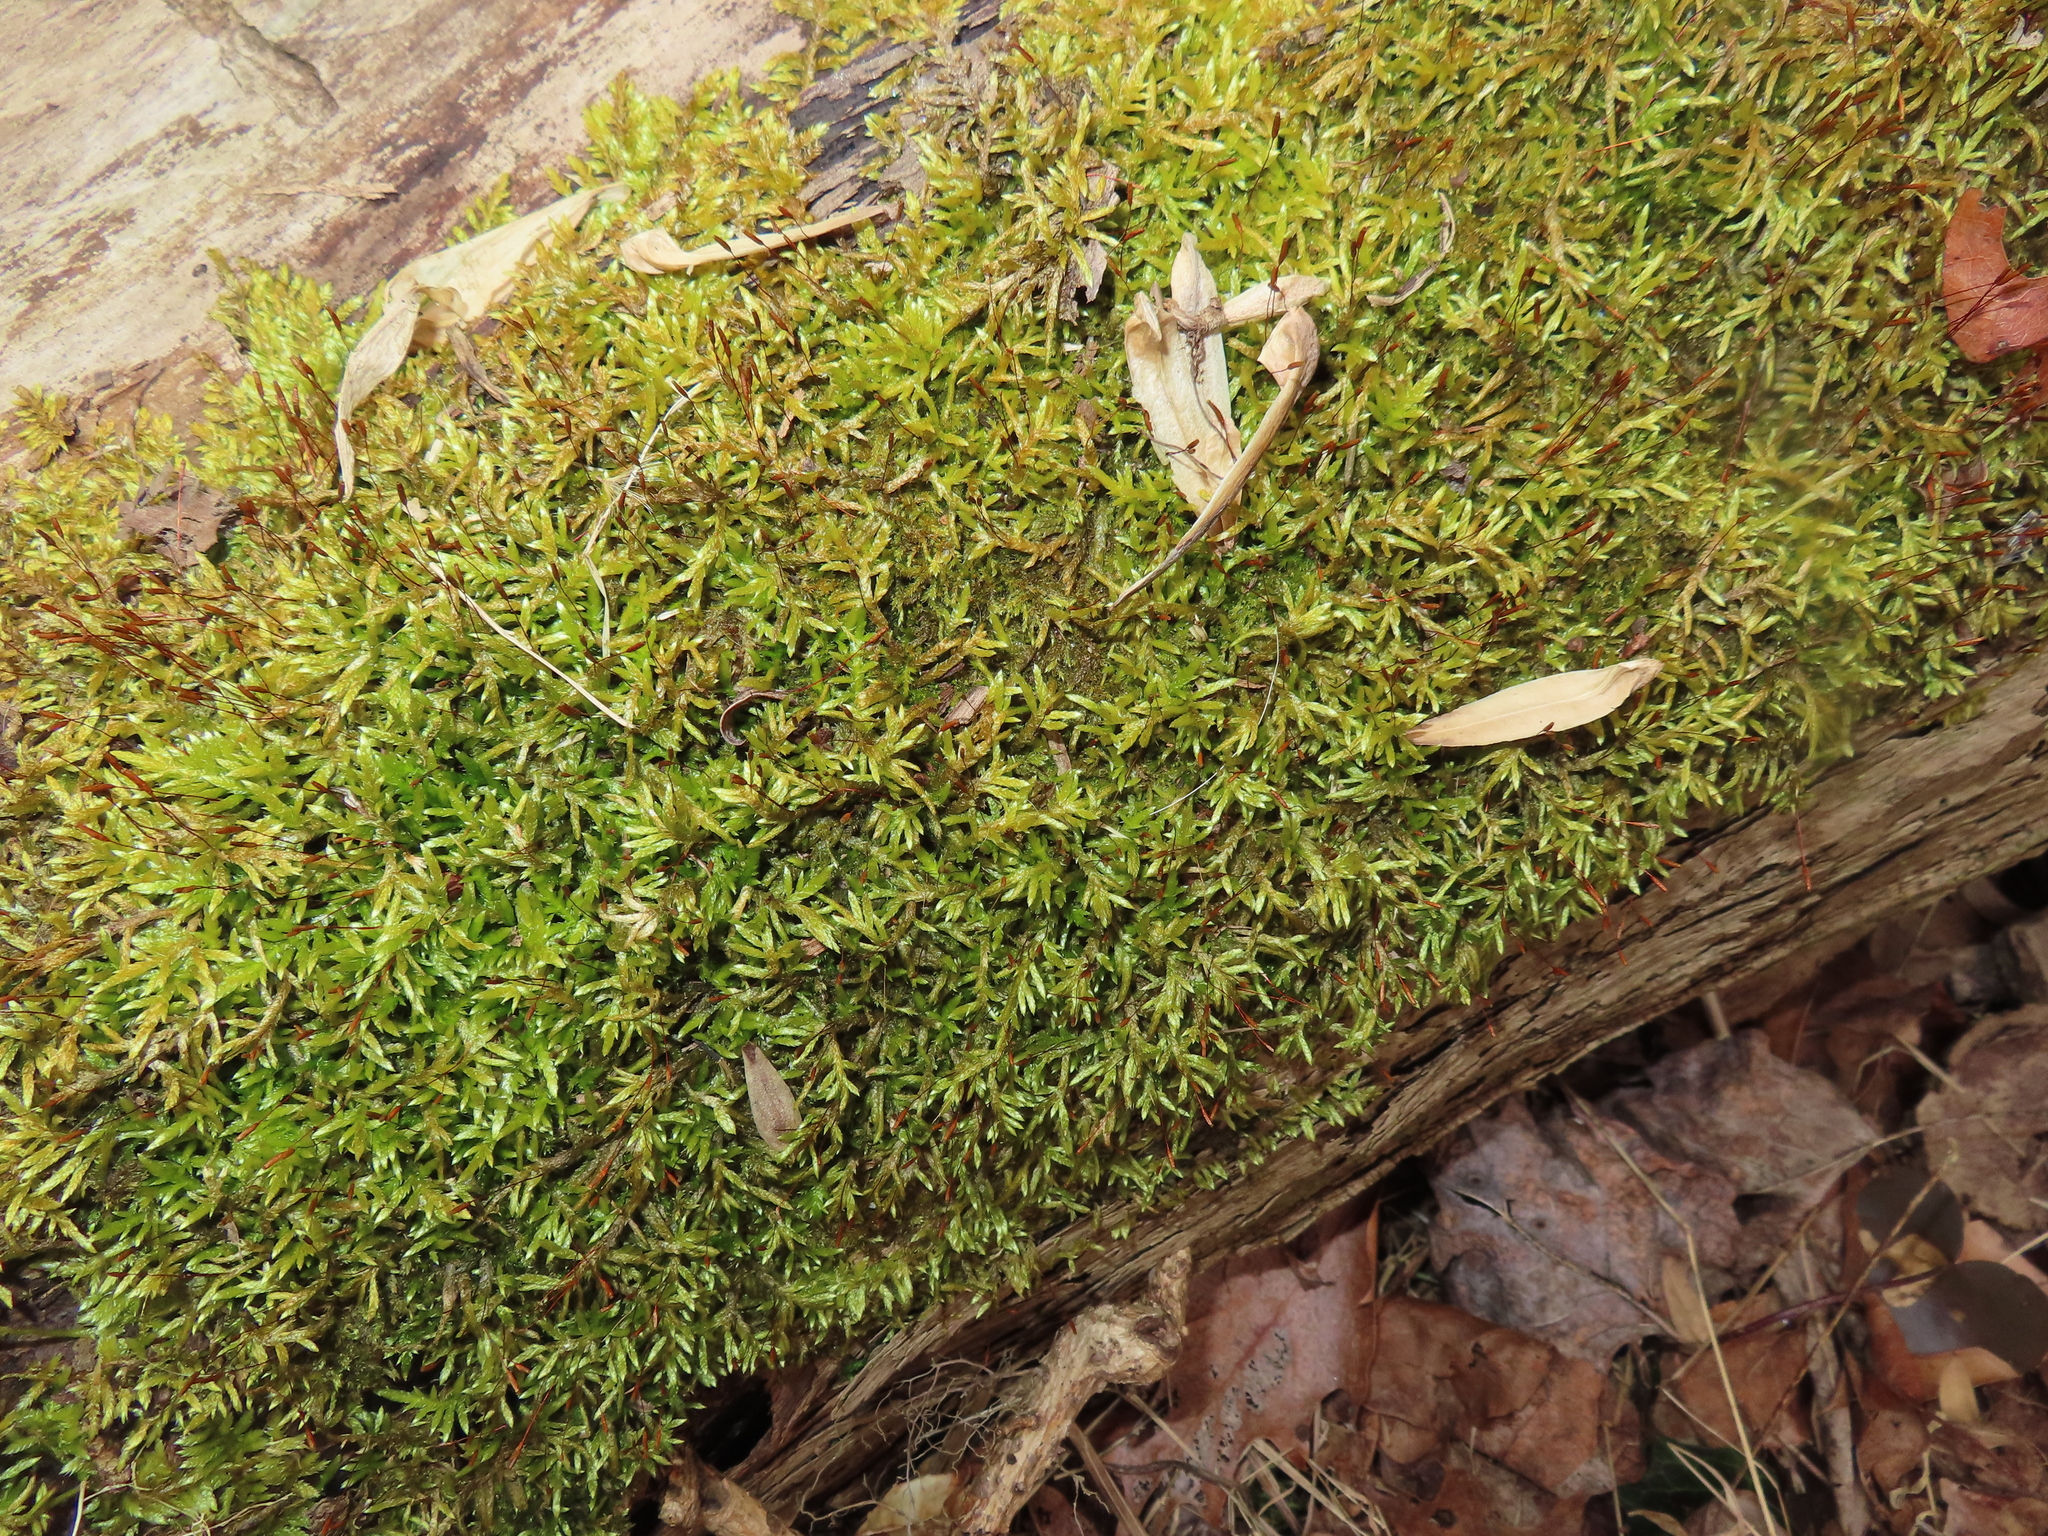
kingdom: Plantae
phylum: Bryophyta
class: Bryopsida
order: Hypnales
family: Entodontaceae
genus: Entodon
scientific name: Entodon seductrix
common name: Round-stemmed entodon moss
